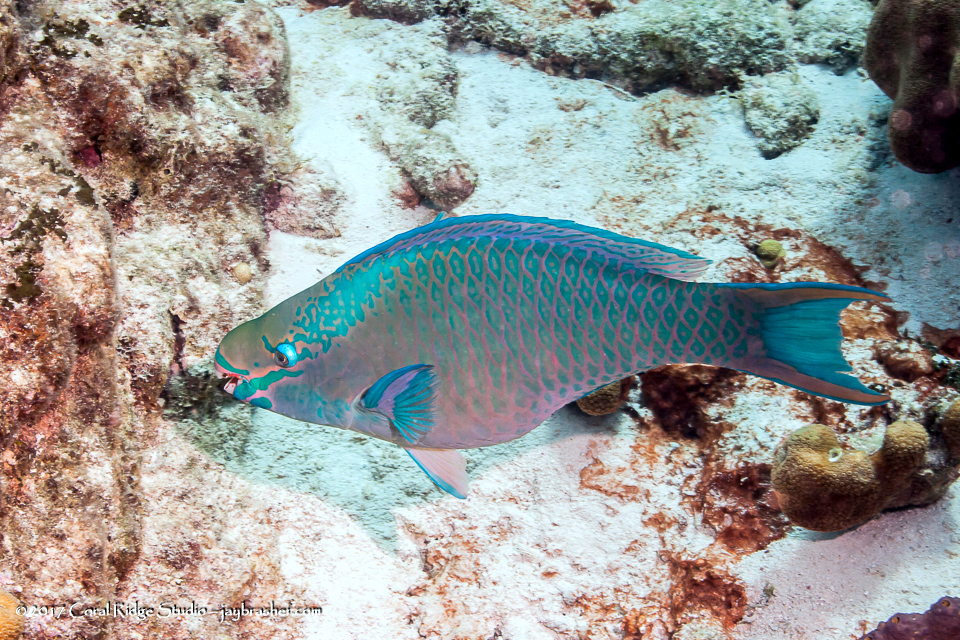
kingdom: Animalia
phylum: Chordata
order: Perciformes
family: Scaridae
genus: Scarus
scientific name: Scarus vetula
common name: Queen parrotfish
